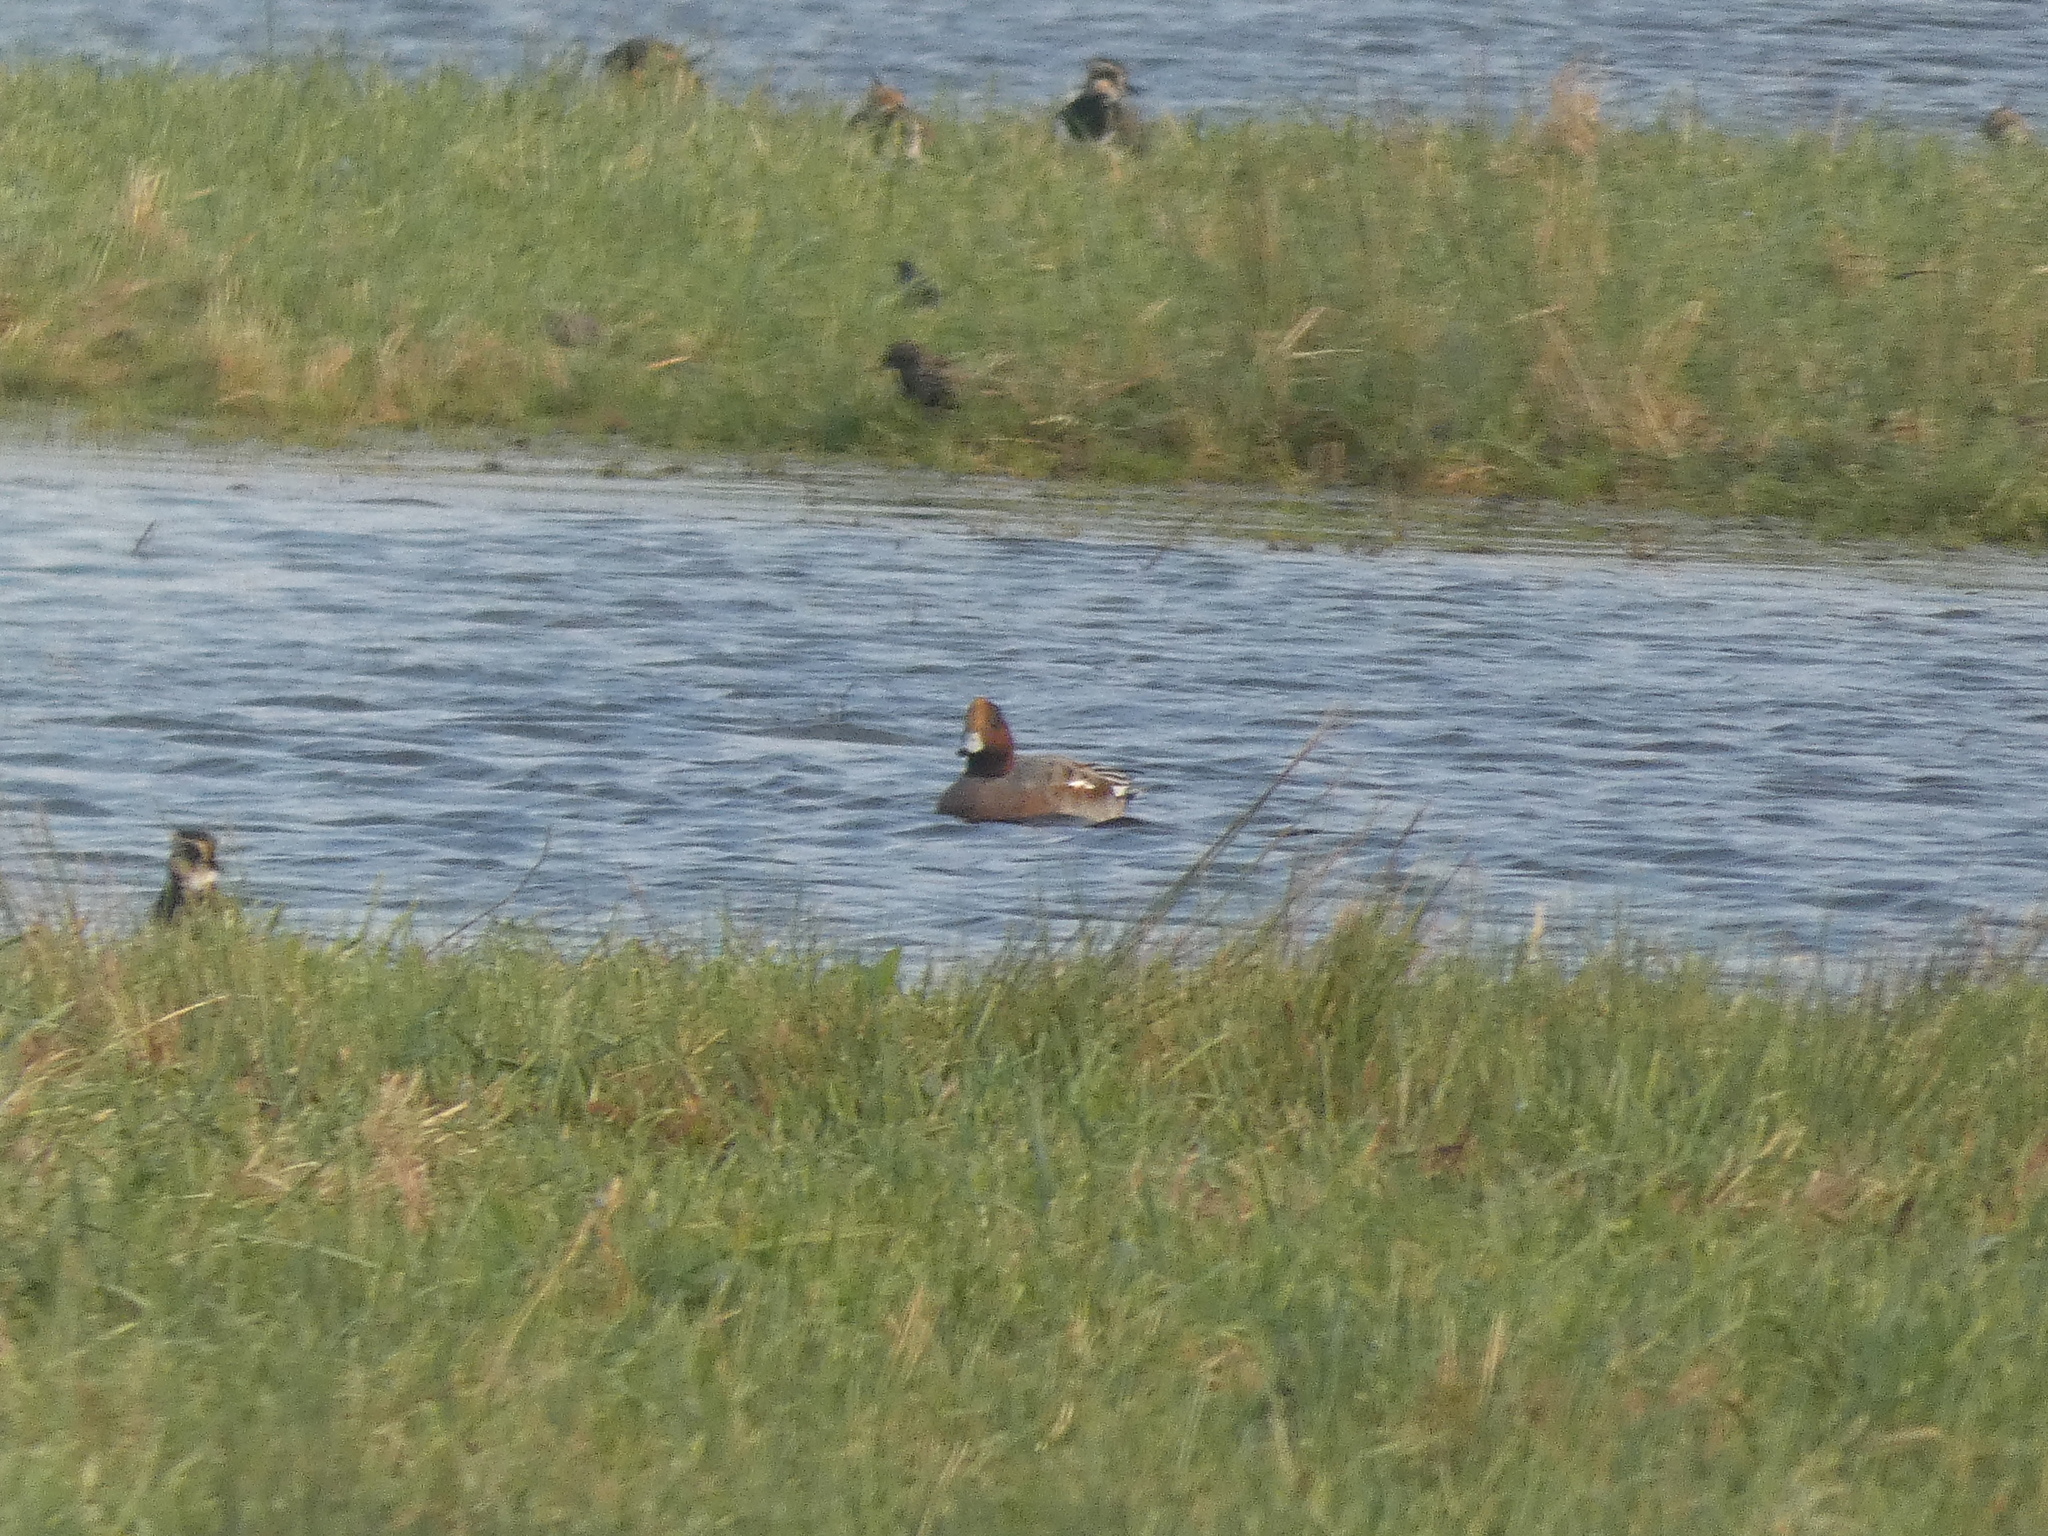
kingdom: Animalia
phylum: Chordata
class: Aves
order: Anseriformes
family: Anatidae
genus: Mareca
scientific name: Mareca penelope
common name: Eurasian wigeon
